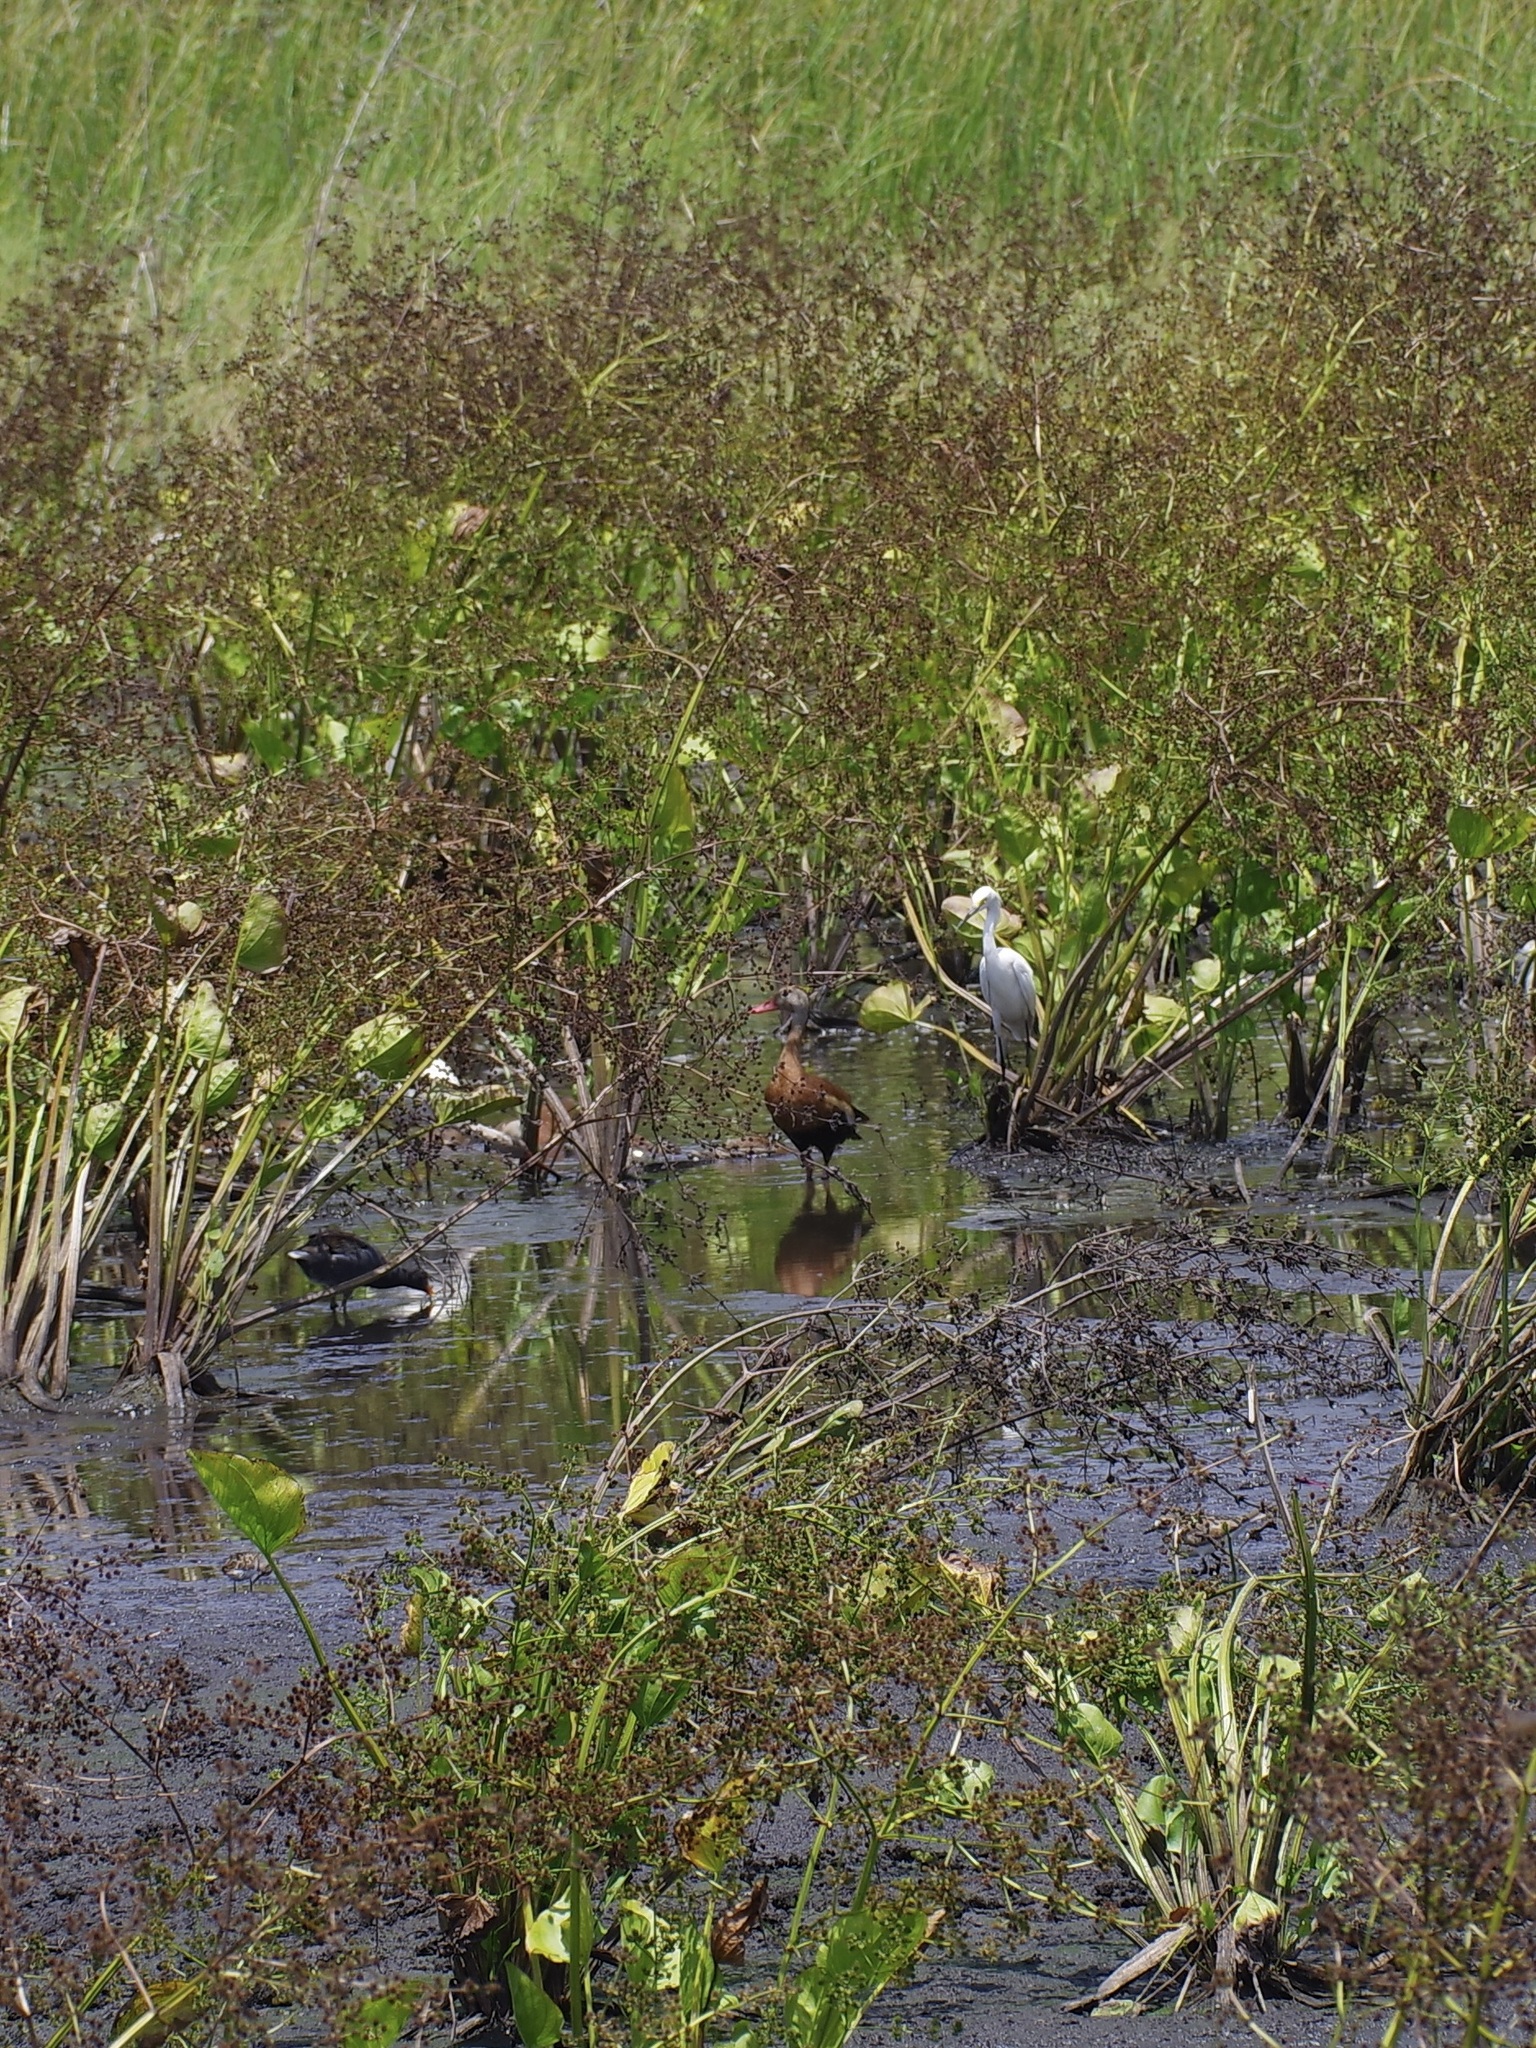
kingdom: Animalia
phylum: Chordata
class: Aves
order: Anseriformes
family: Anatidae
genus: Dendrocygna
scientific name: Dendrocygna autumnalis
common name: Black-bellied whistling duck
